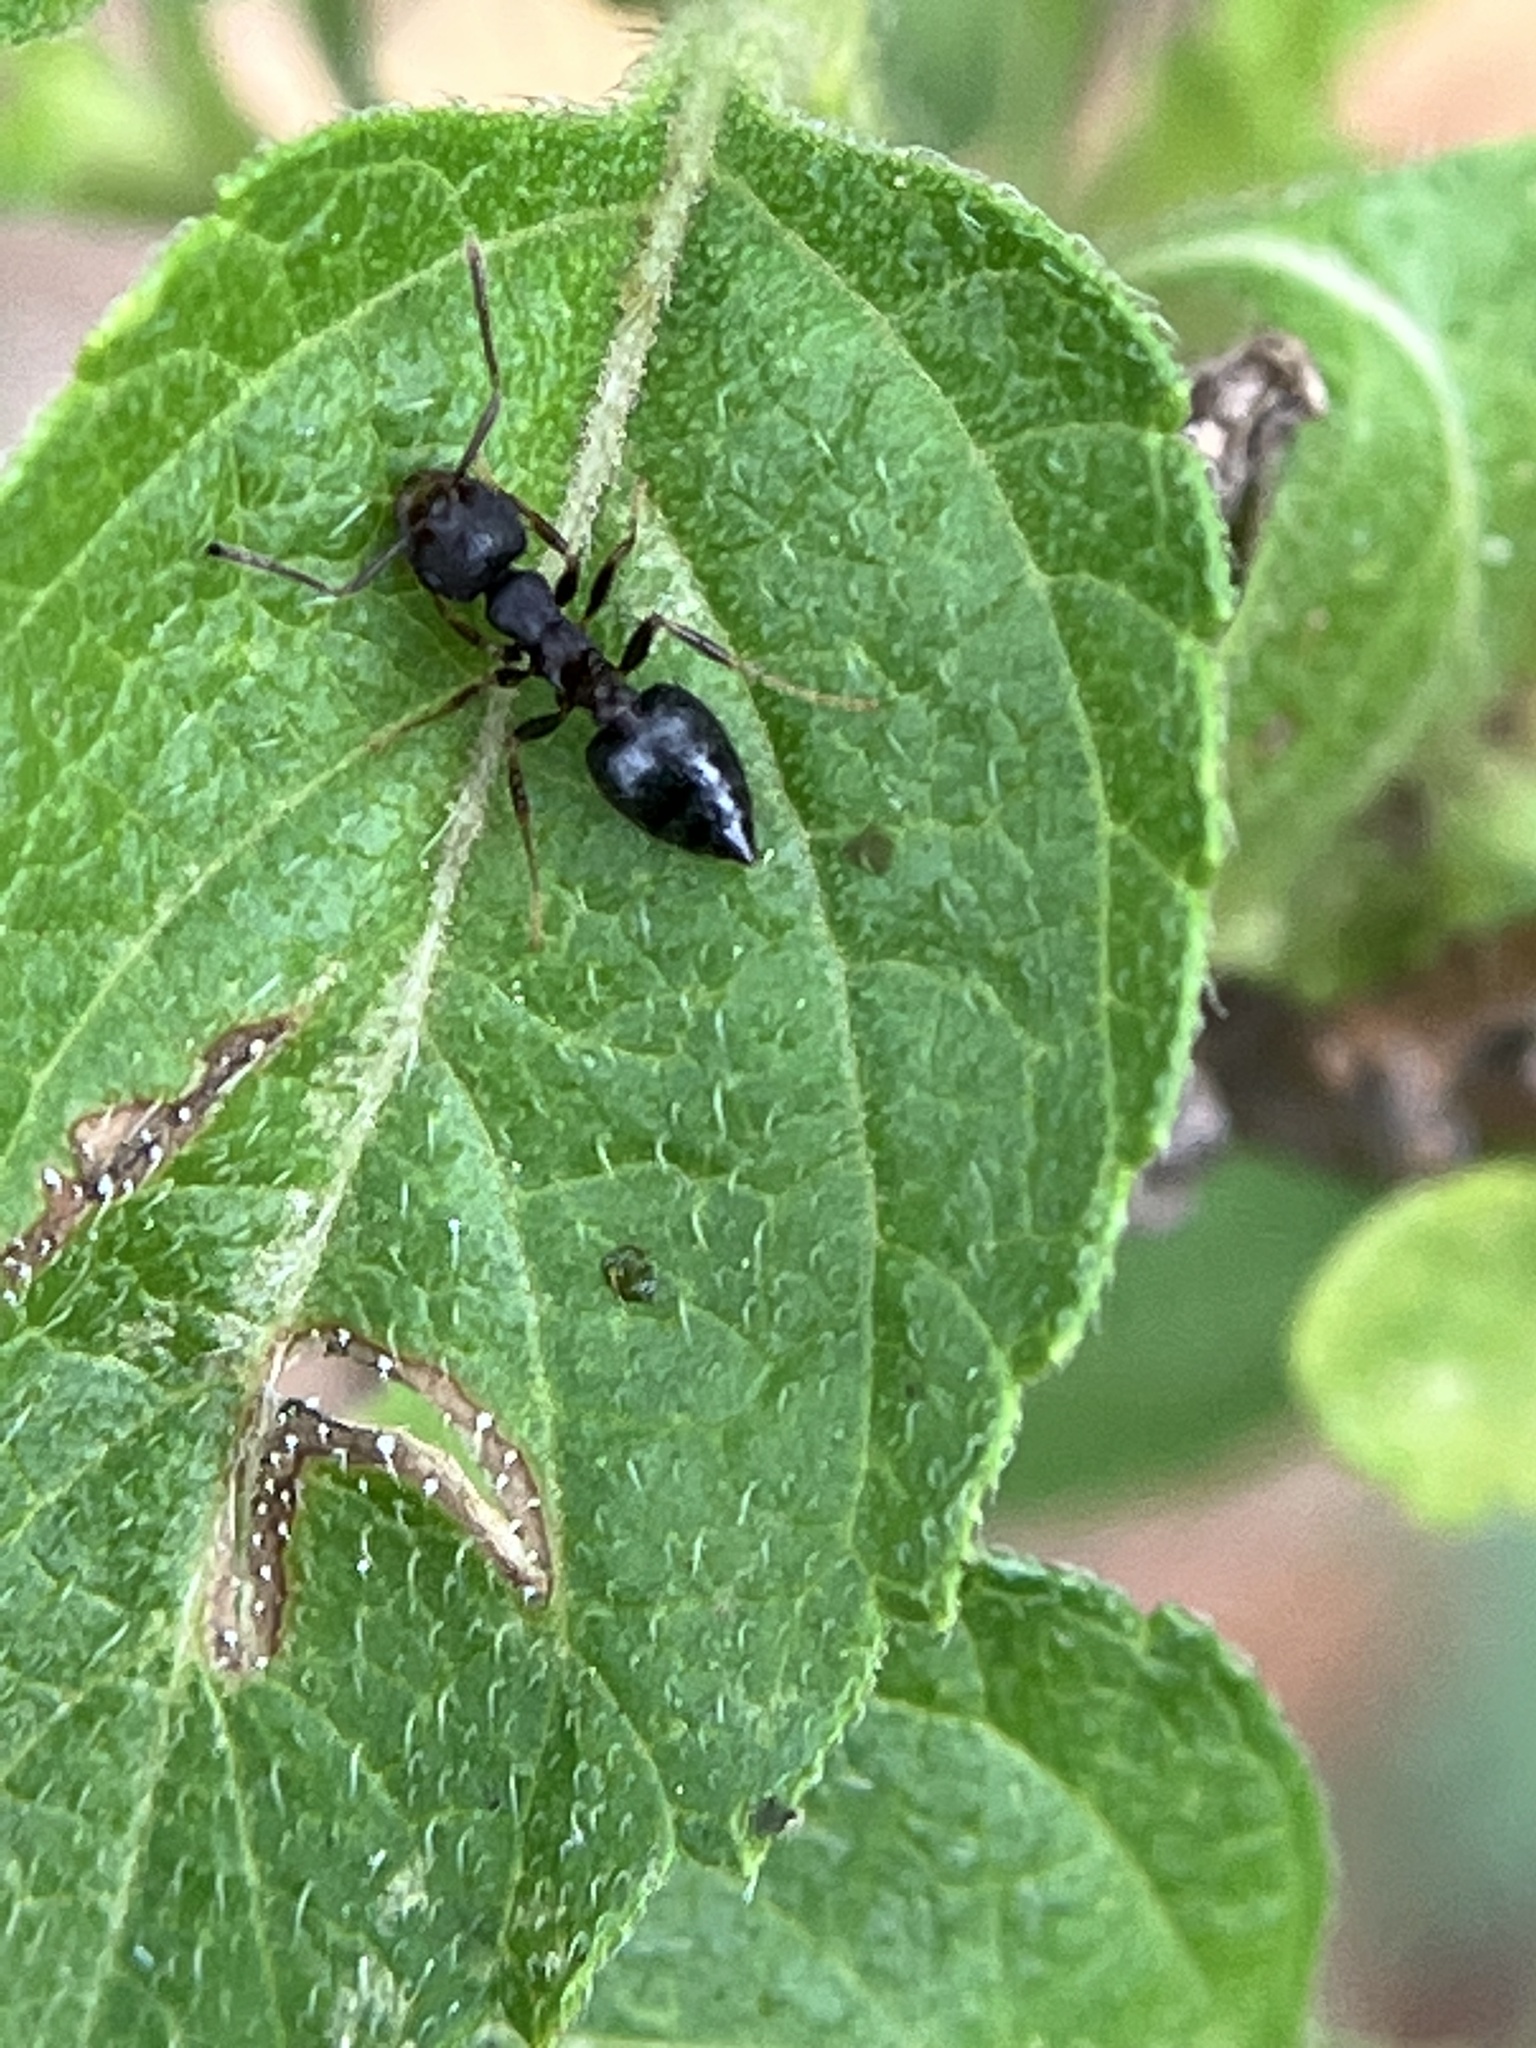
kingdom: Animalia
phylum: Arthropoda
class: Insecta
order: Hymenoptera
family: Formicidae
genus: Crematogaster
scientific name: Crematogaster rothneyi
